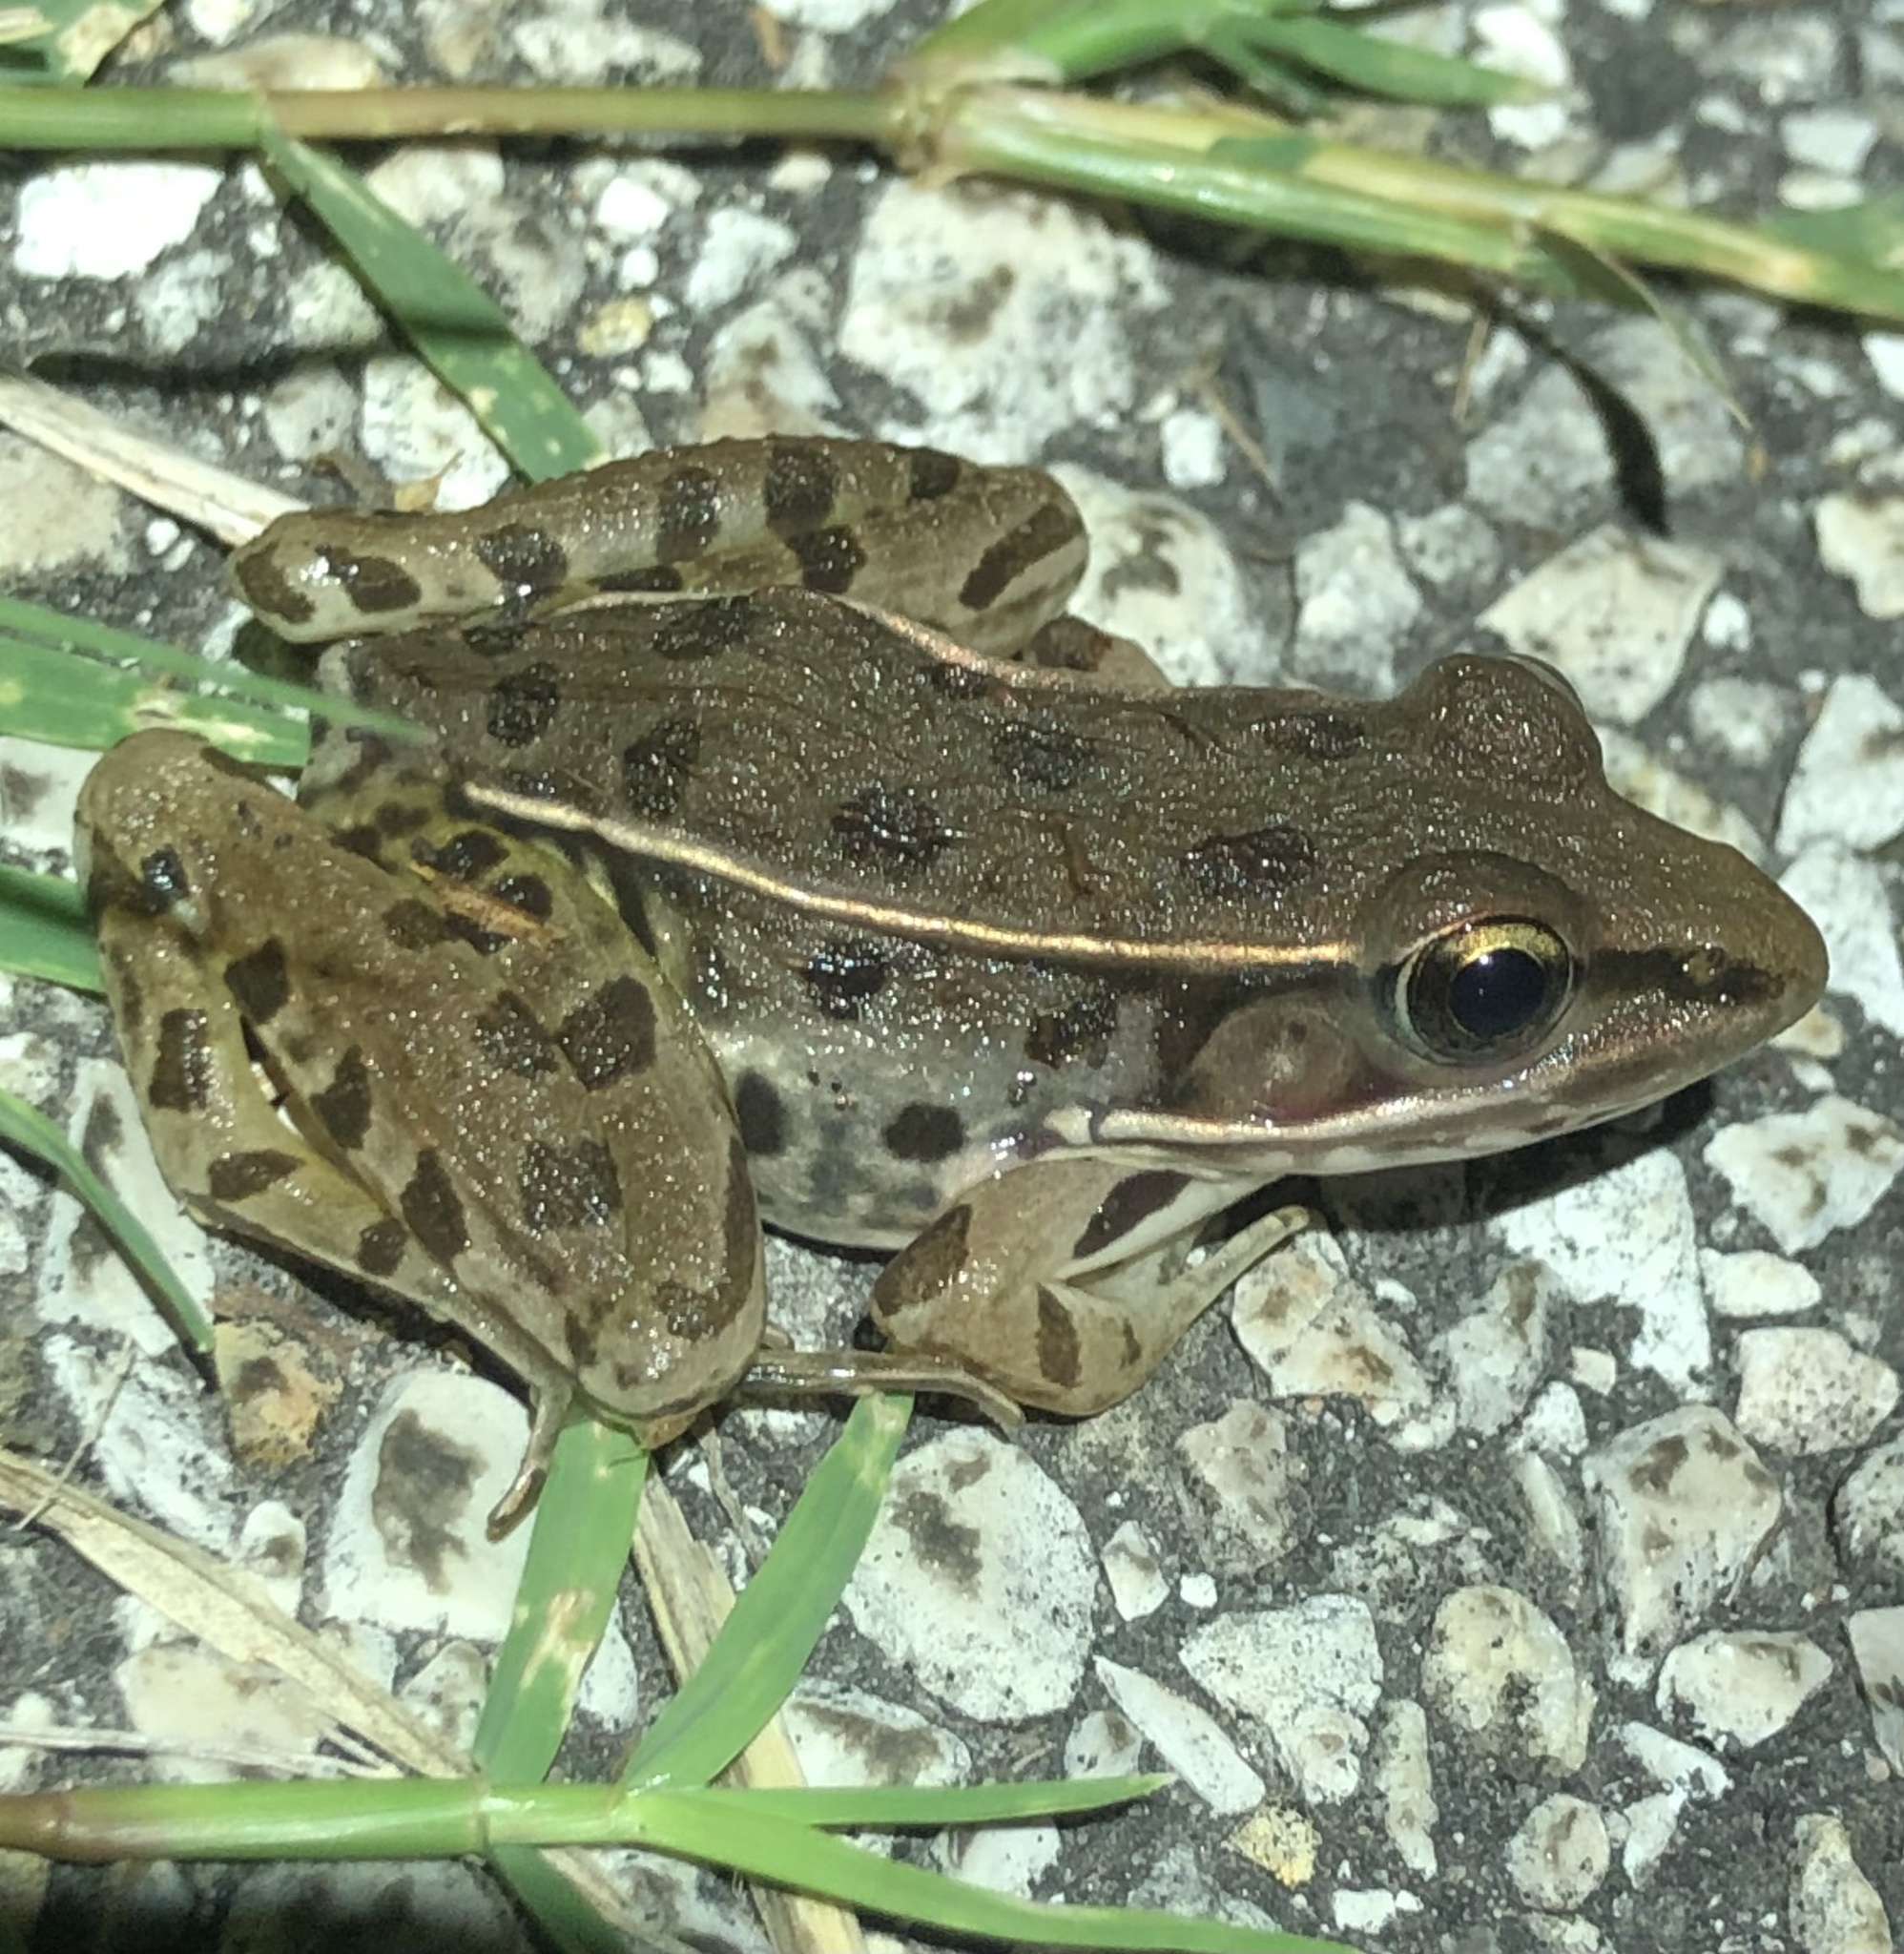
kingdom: Animalia
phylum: Chordata
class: Amphibia
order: Anura
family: Ranidae
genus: Lithobates
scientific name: Lithobates sphenocephalus
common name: Southern leopard frog
